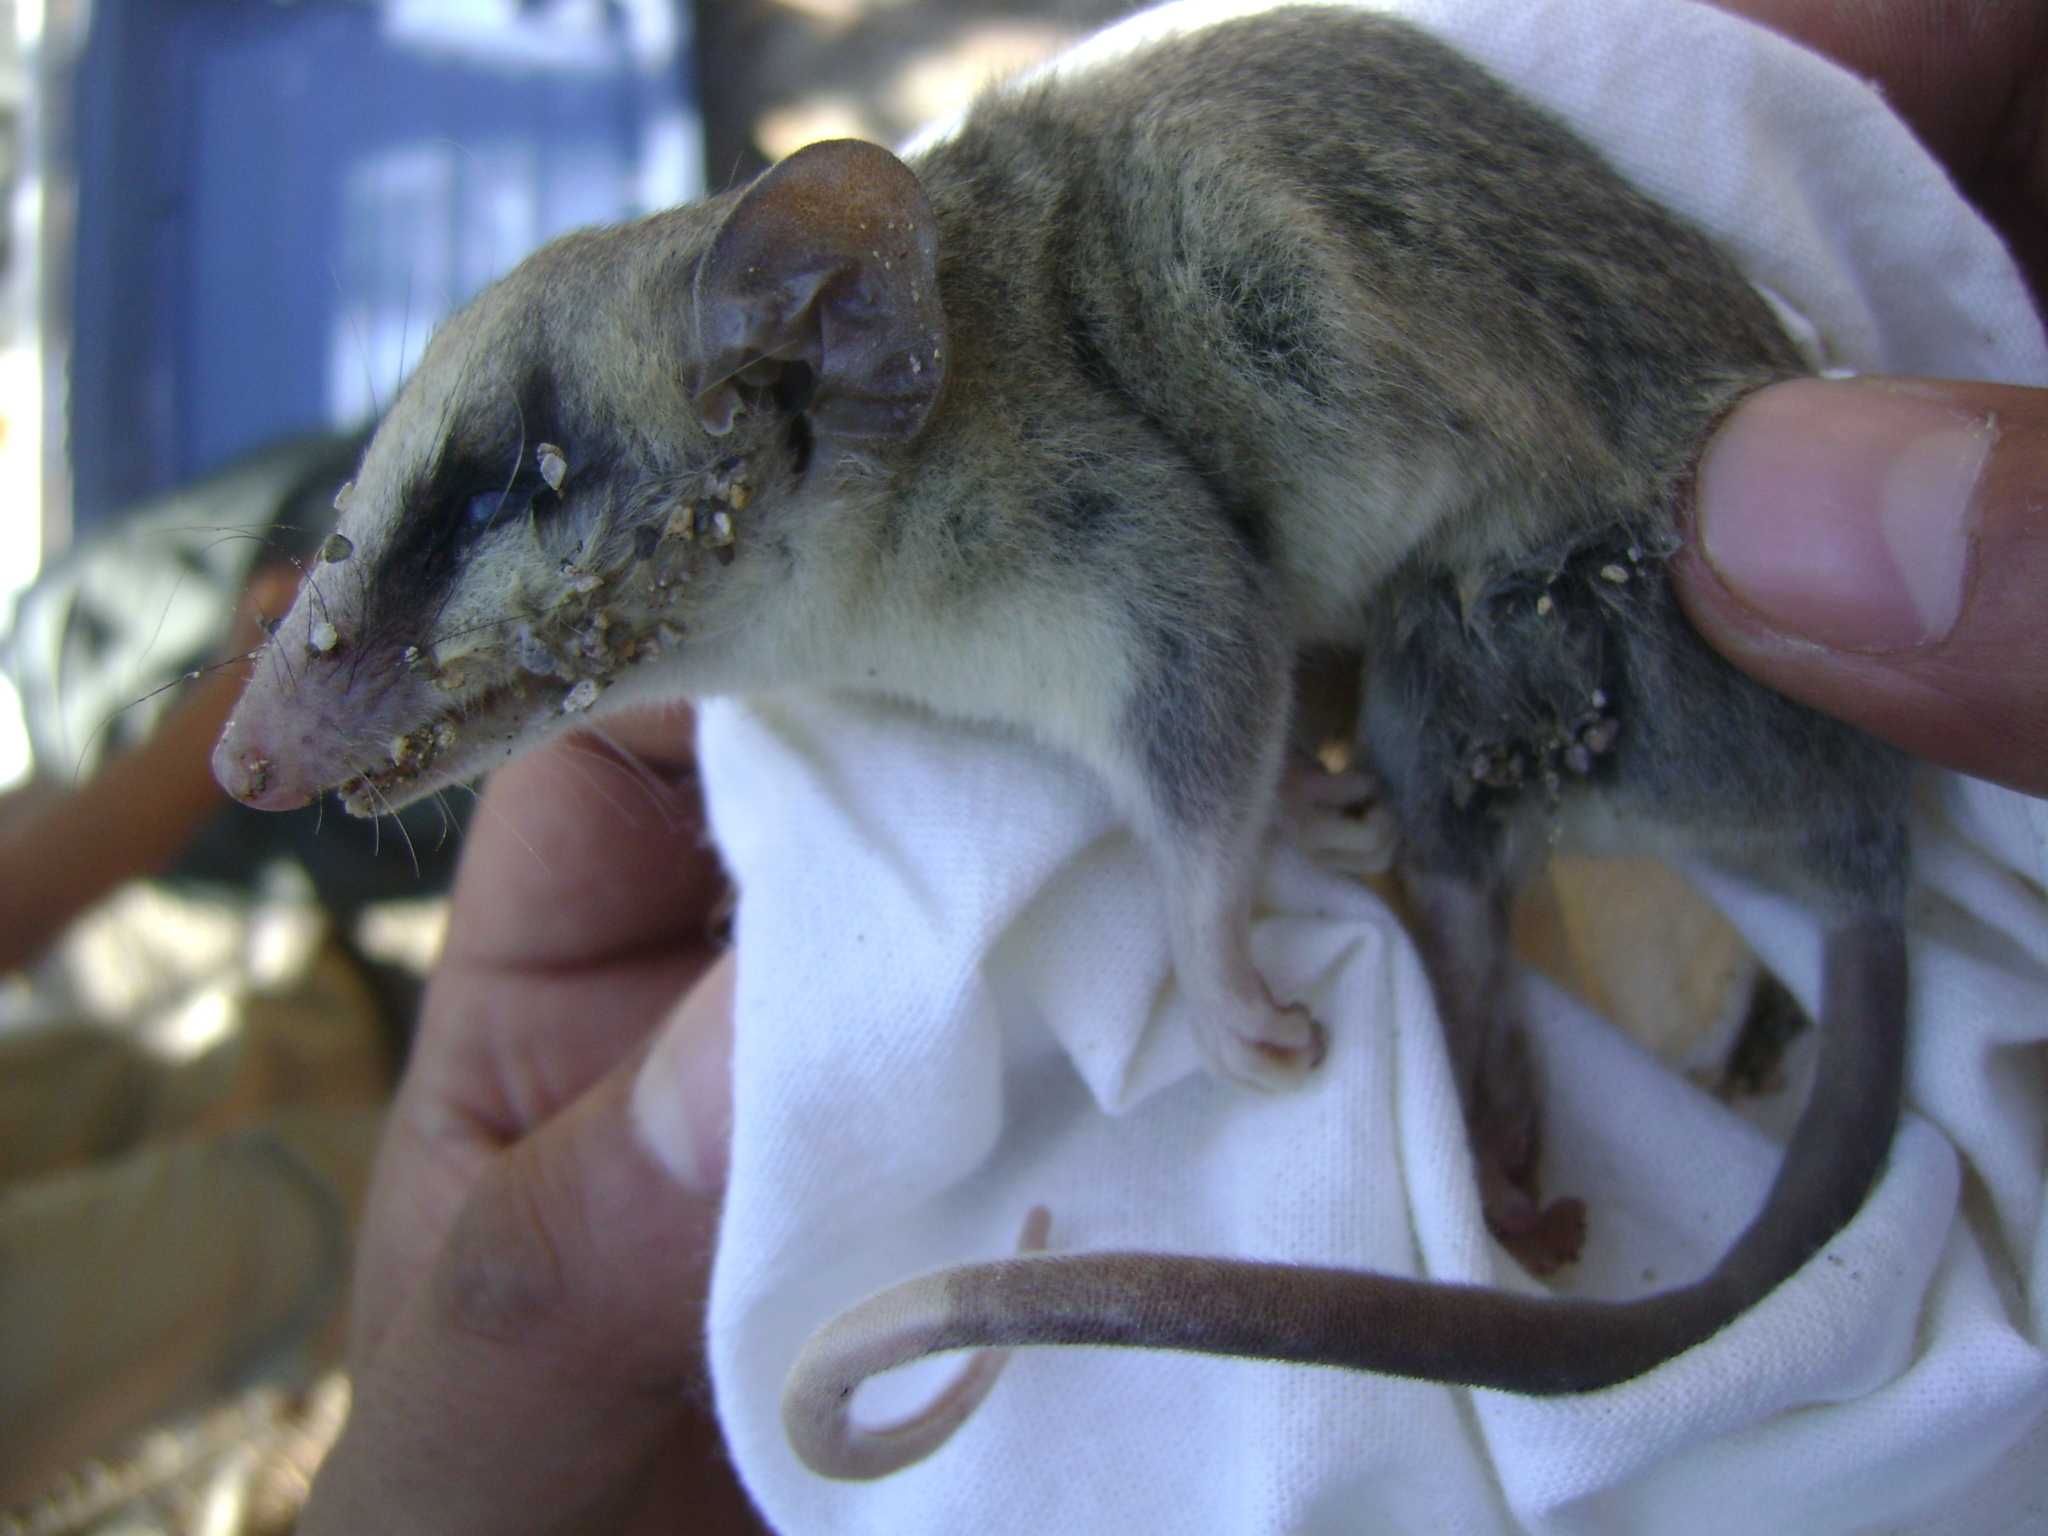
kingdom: Animalia
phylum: Chordata
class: Mammalia
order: Didelphimorphia
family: Didelphidae
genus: Tlacuatzin
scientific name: Tlacuatzin canescens
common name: Gray mouse opossum
